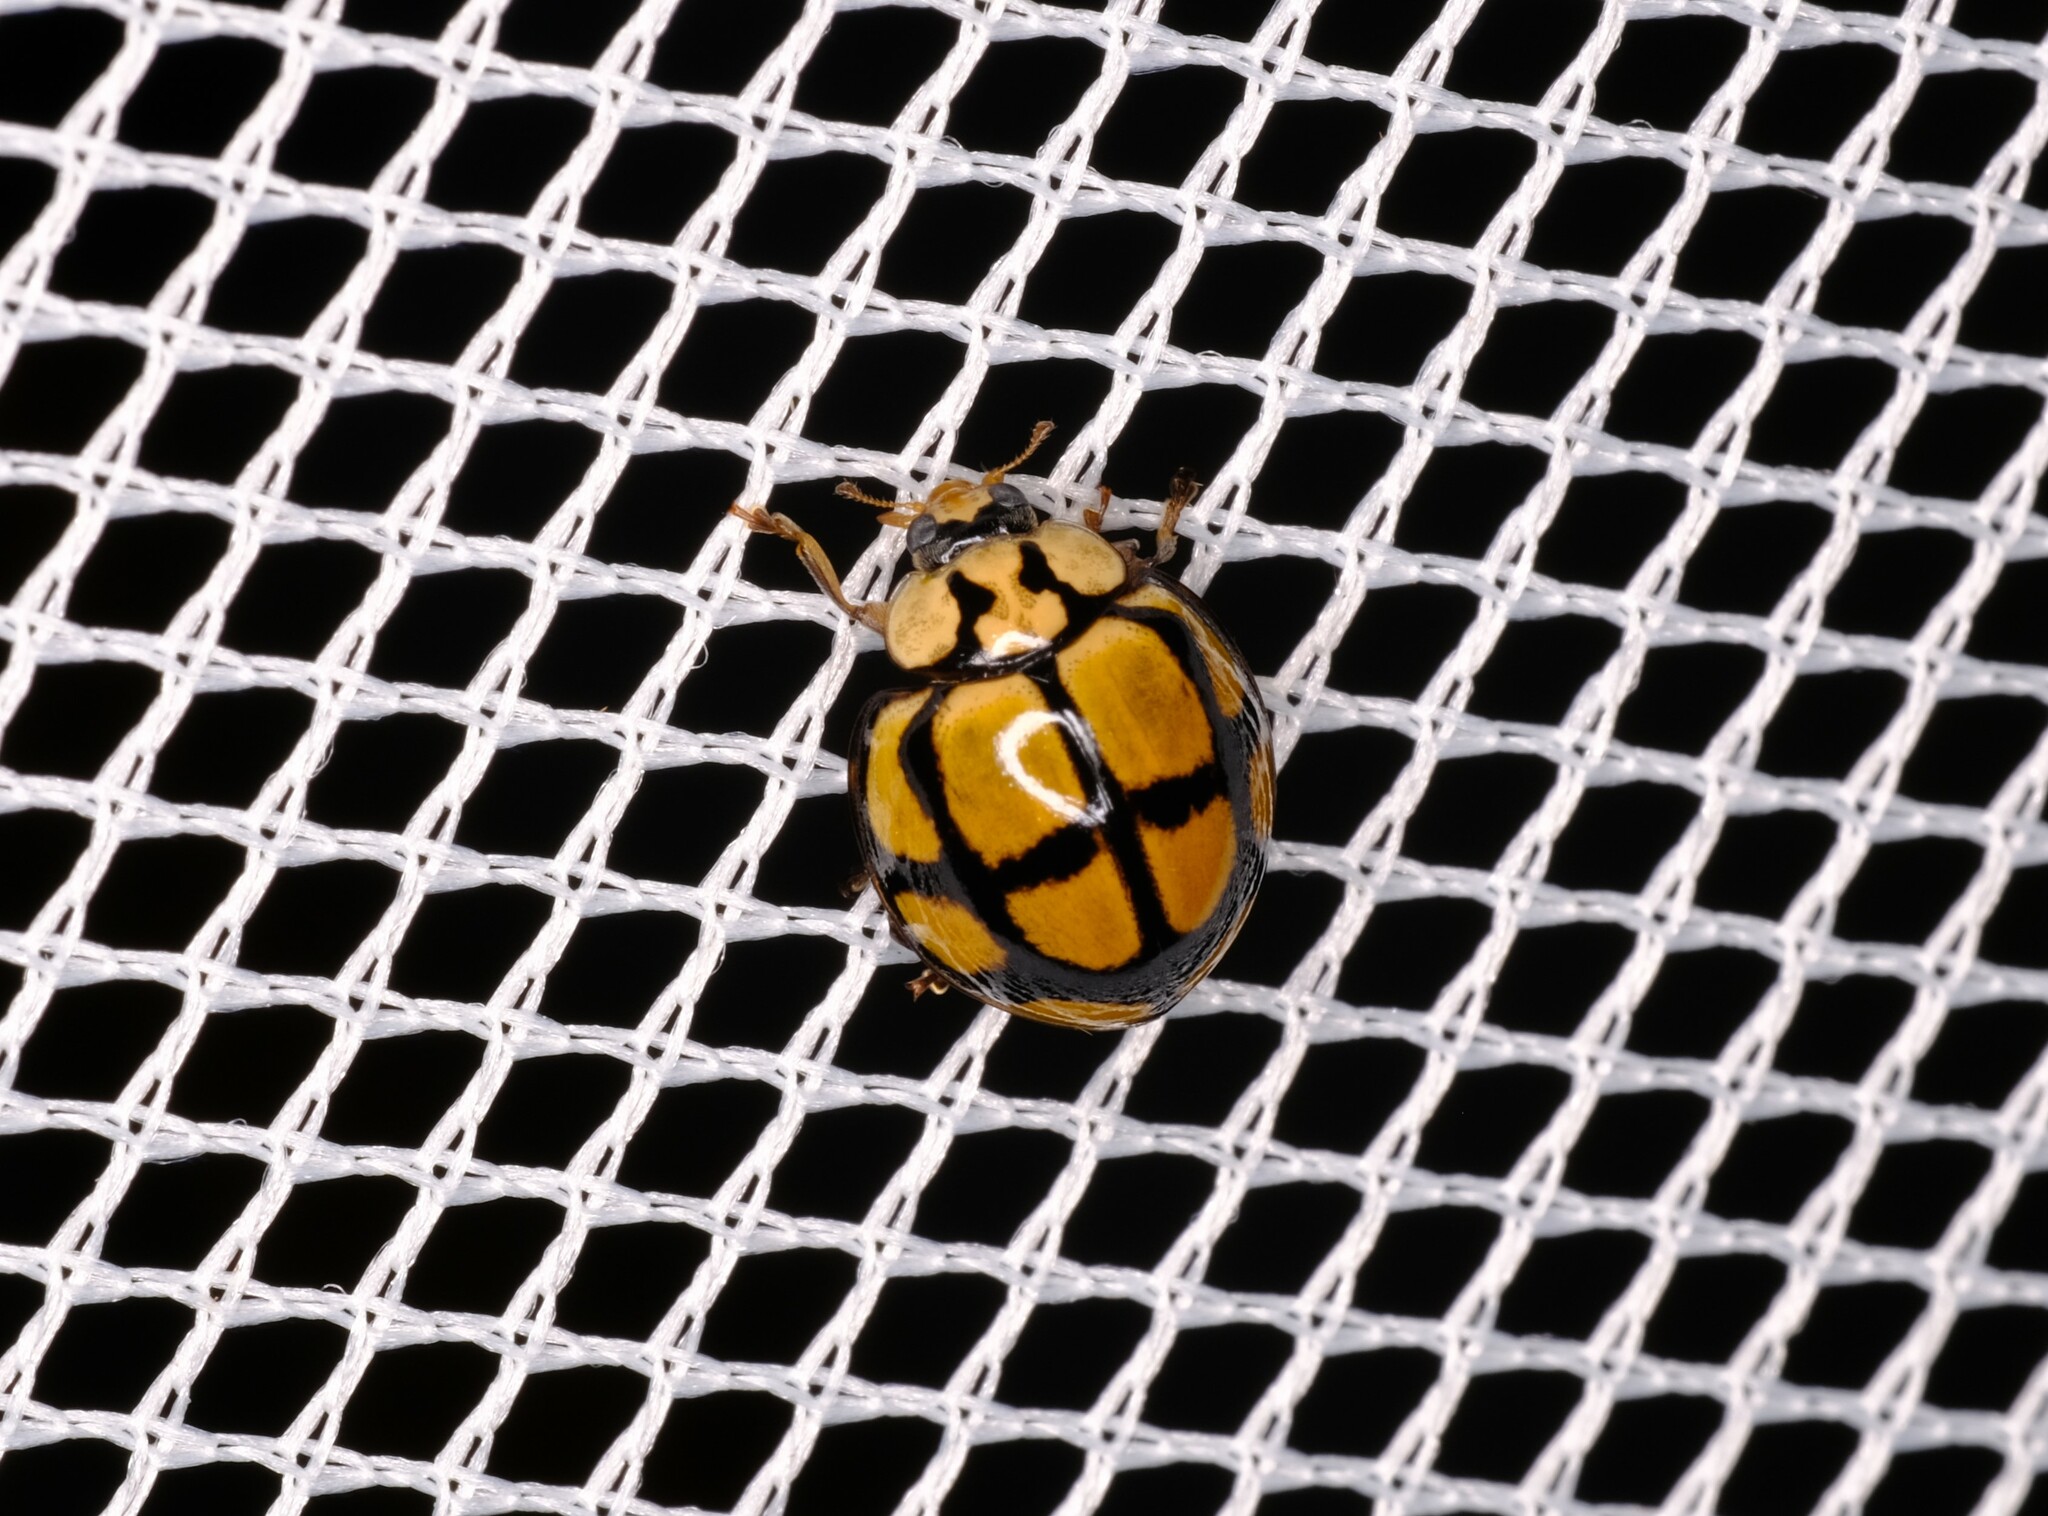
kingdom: Animalia
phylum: Arthropoda
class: Insecta
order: Coleoptera
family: Coccinellidae
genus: Harmonia
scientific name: Harmonia
